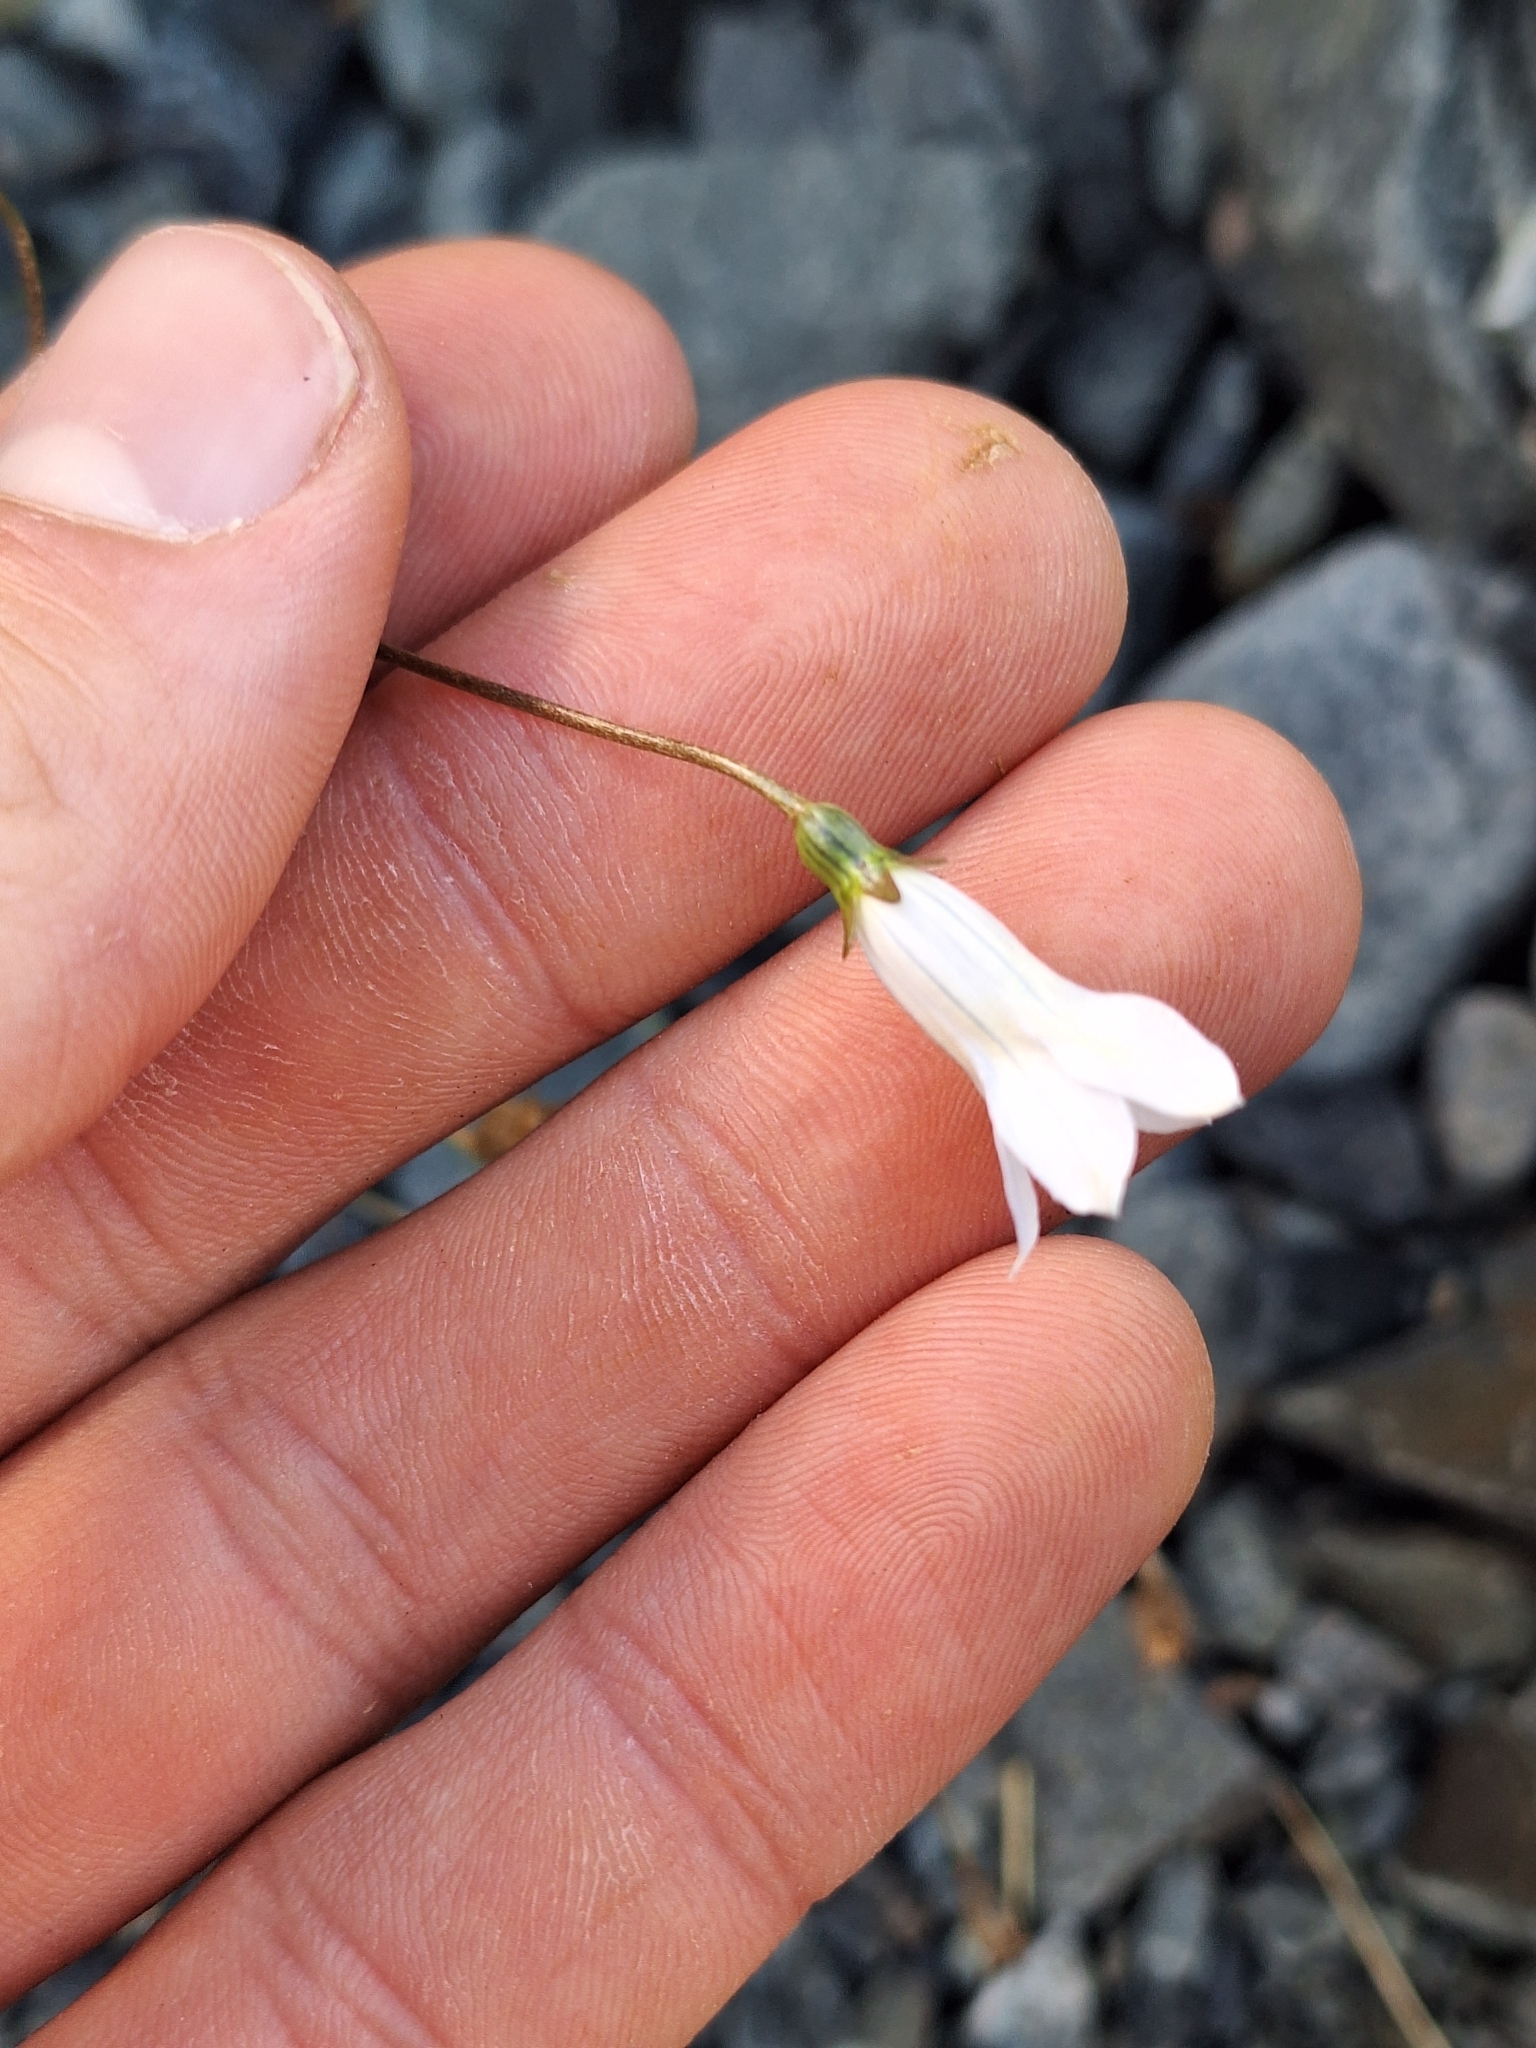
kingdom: Plantae
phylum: Tracheophyta
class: Magnoliopsida
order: Asterales
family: Campanulaceae
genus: Wahlenbergia
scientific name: Wahlenbergia albomarginata
